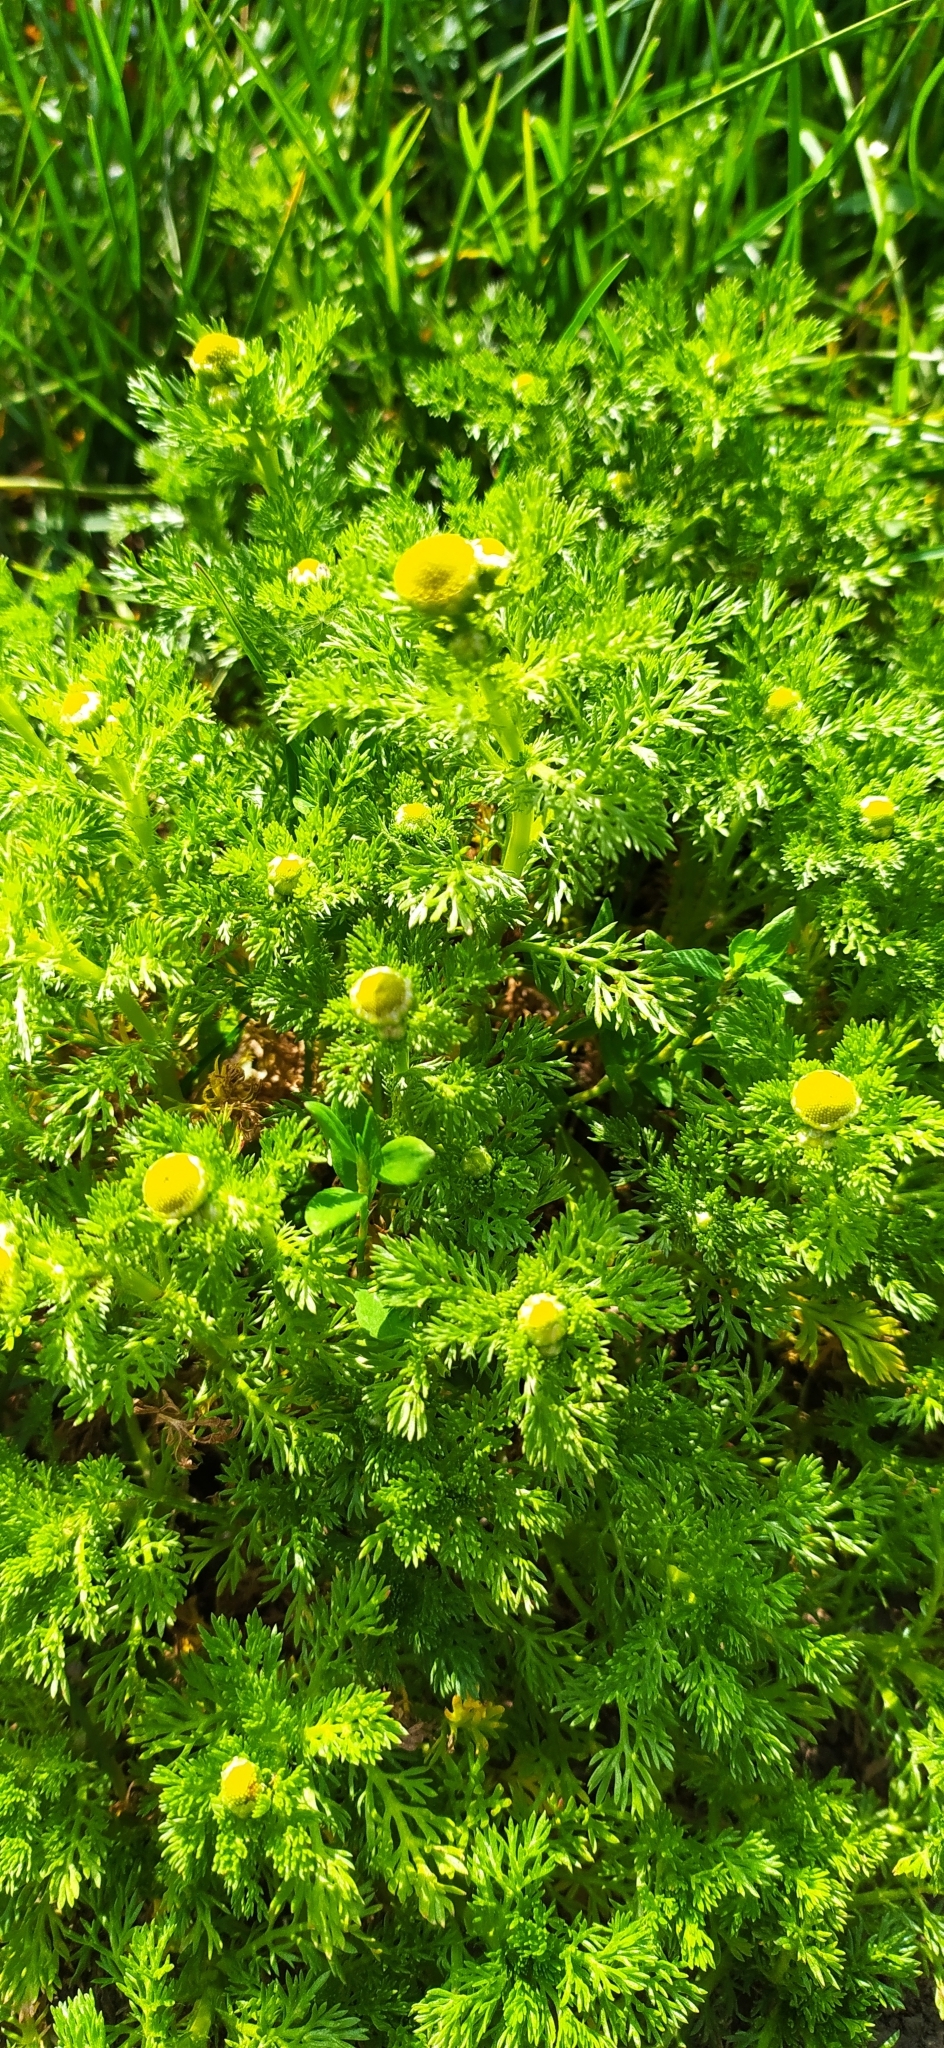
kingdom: Plantae
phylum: Tracheophyta
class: Magnoliopsida
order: Asterales
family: Asteraceae
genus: Matricaria
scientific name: Matricaria discoidea
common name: Disc mayweed
